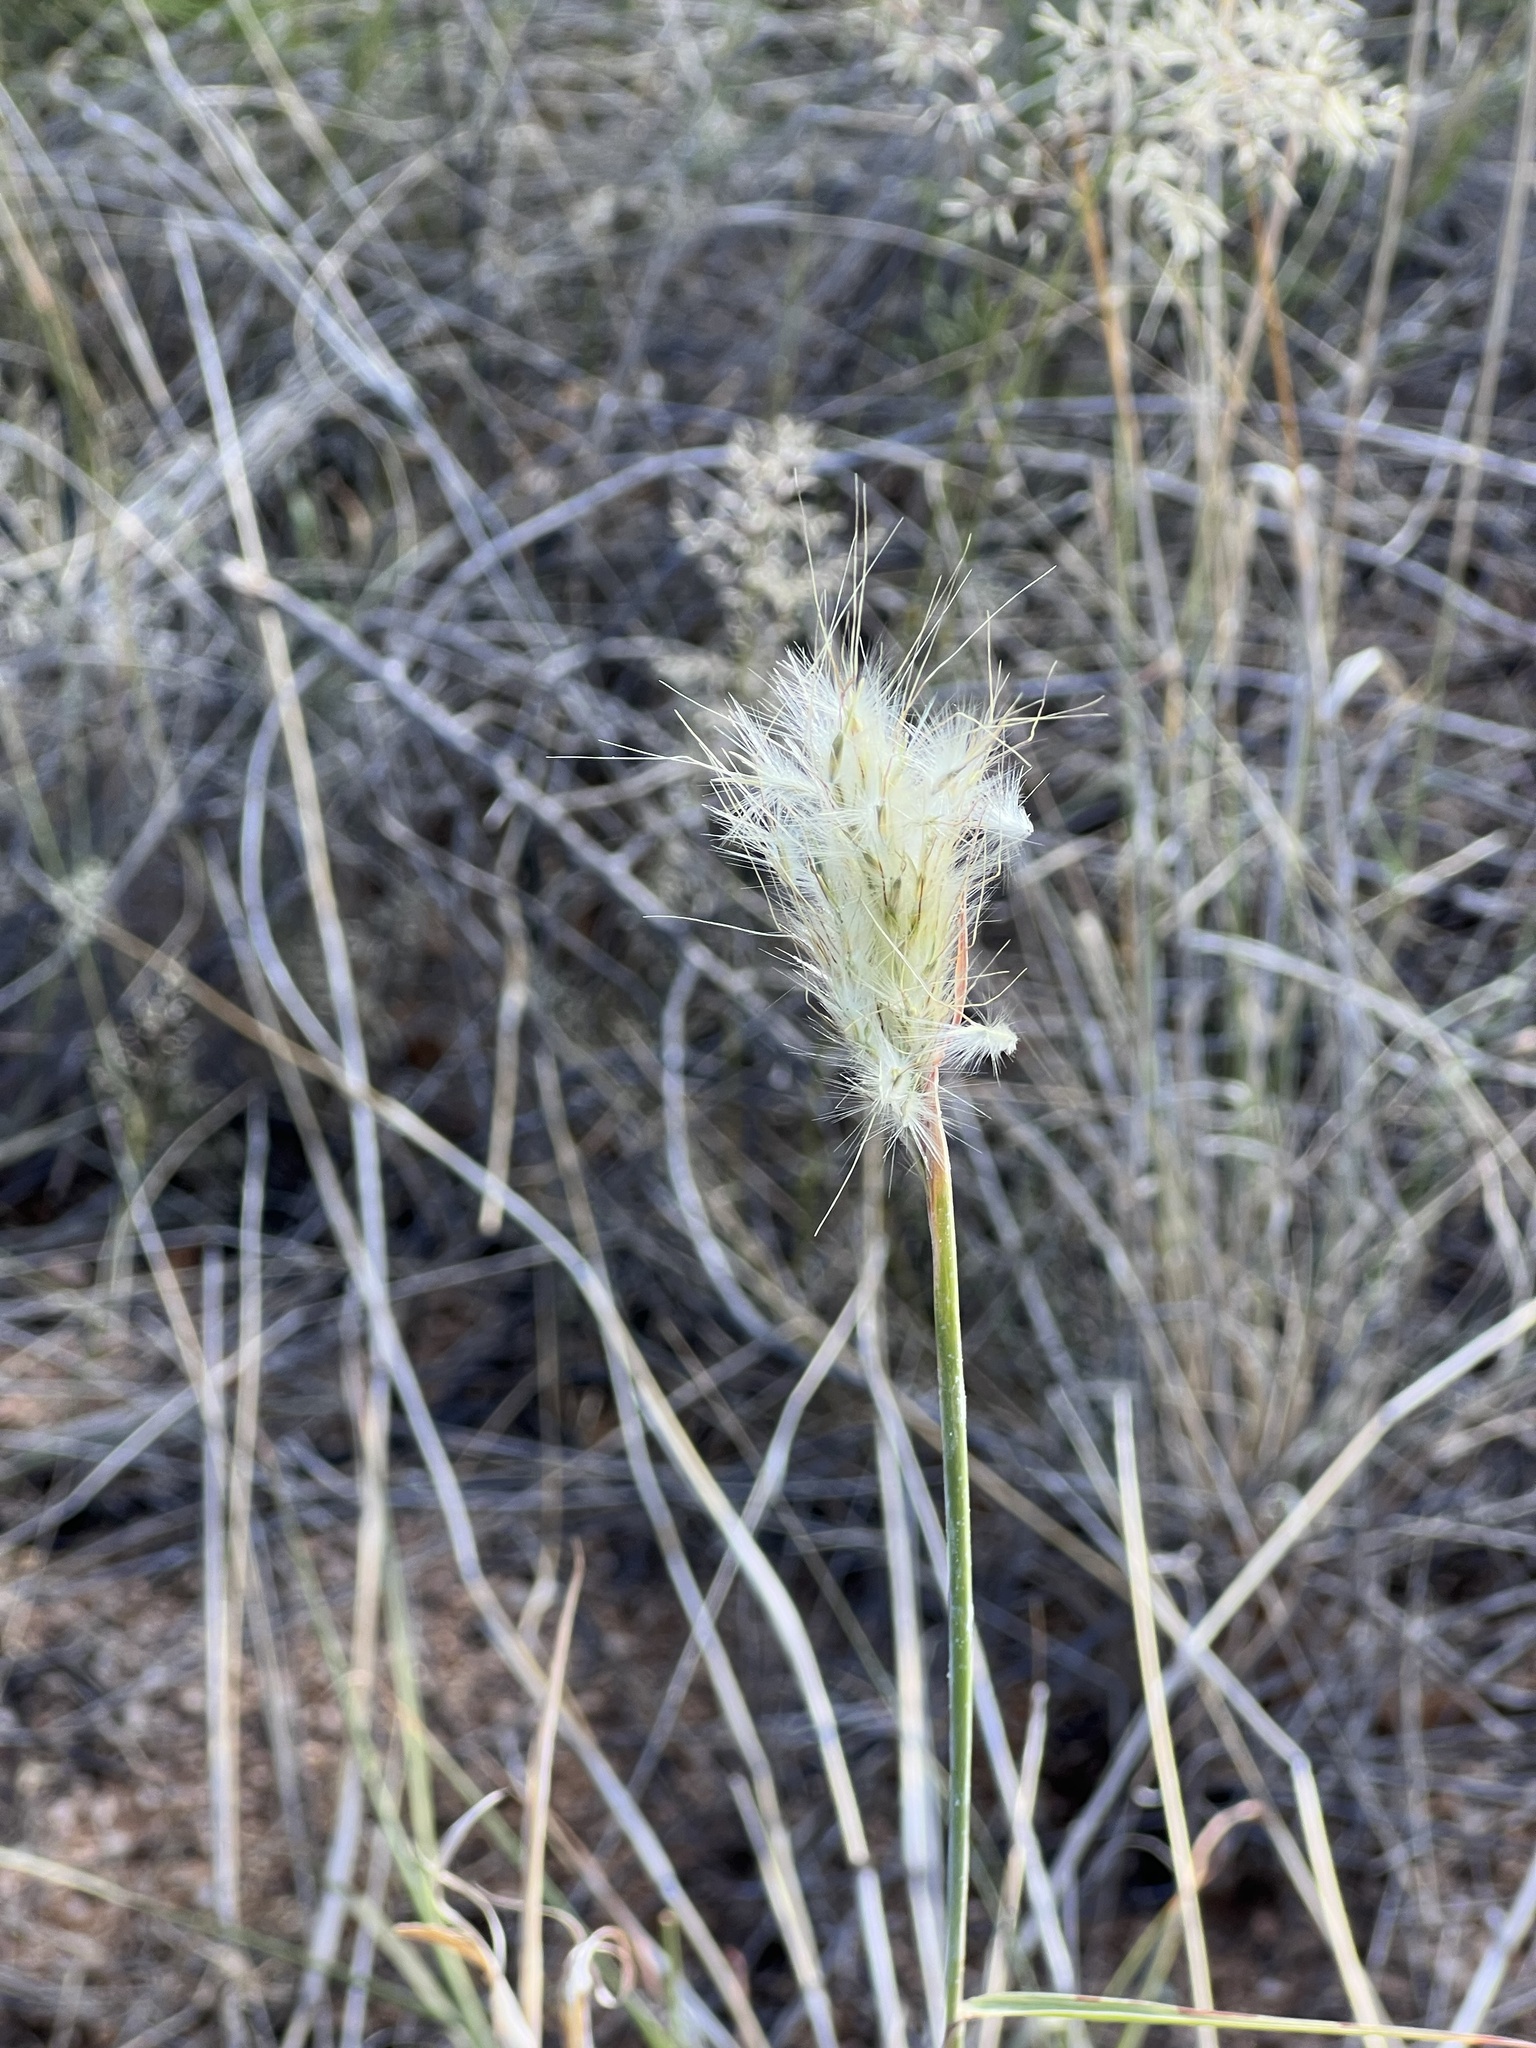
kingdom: Plantae
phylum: Tracheophyta
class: Liliopsida
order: Poales
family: Poaceae
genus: Bothriochloa
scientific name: Bothriochloa barbinodis
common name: Cane bluestem
